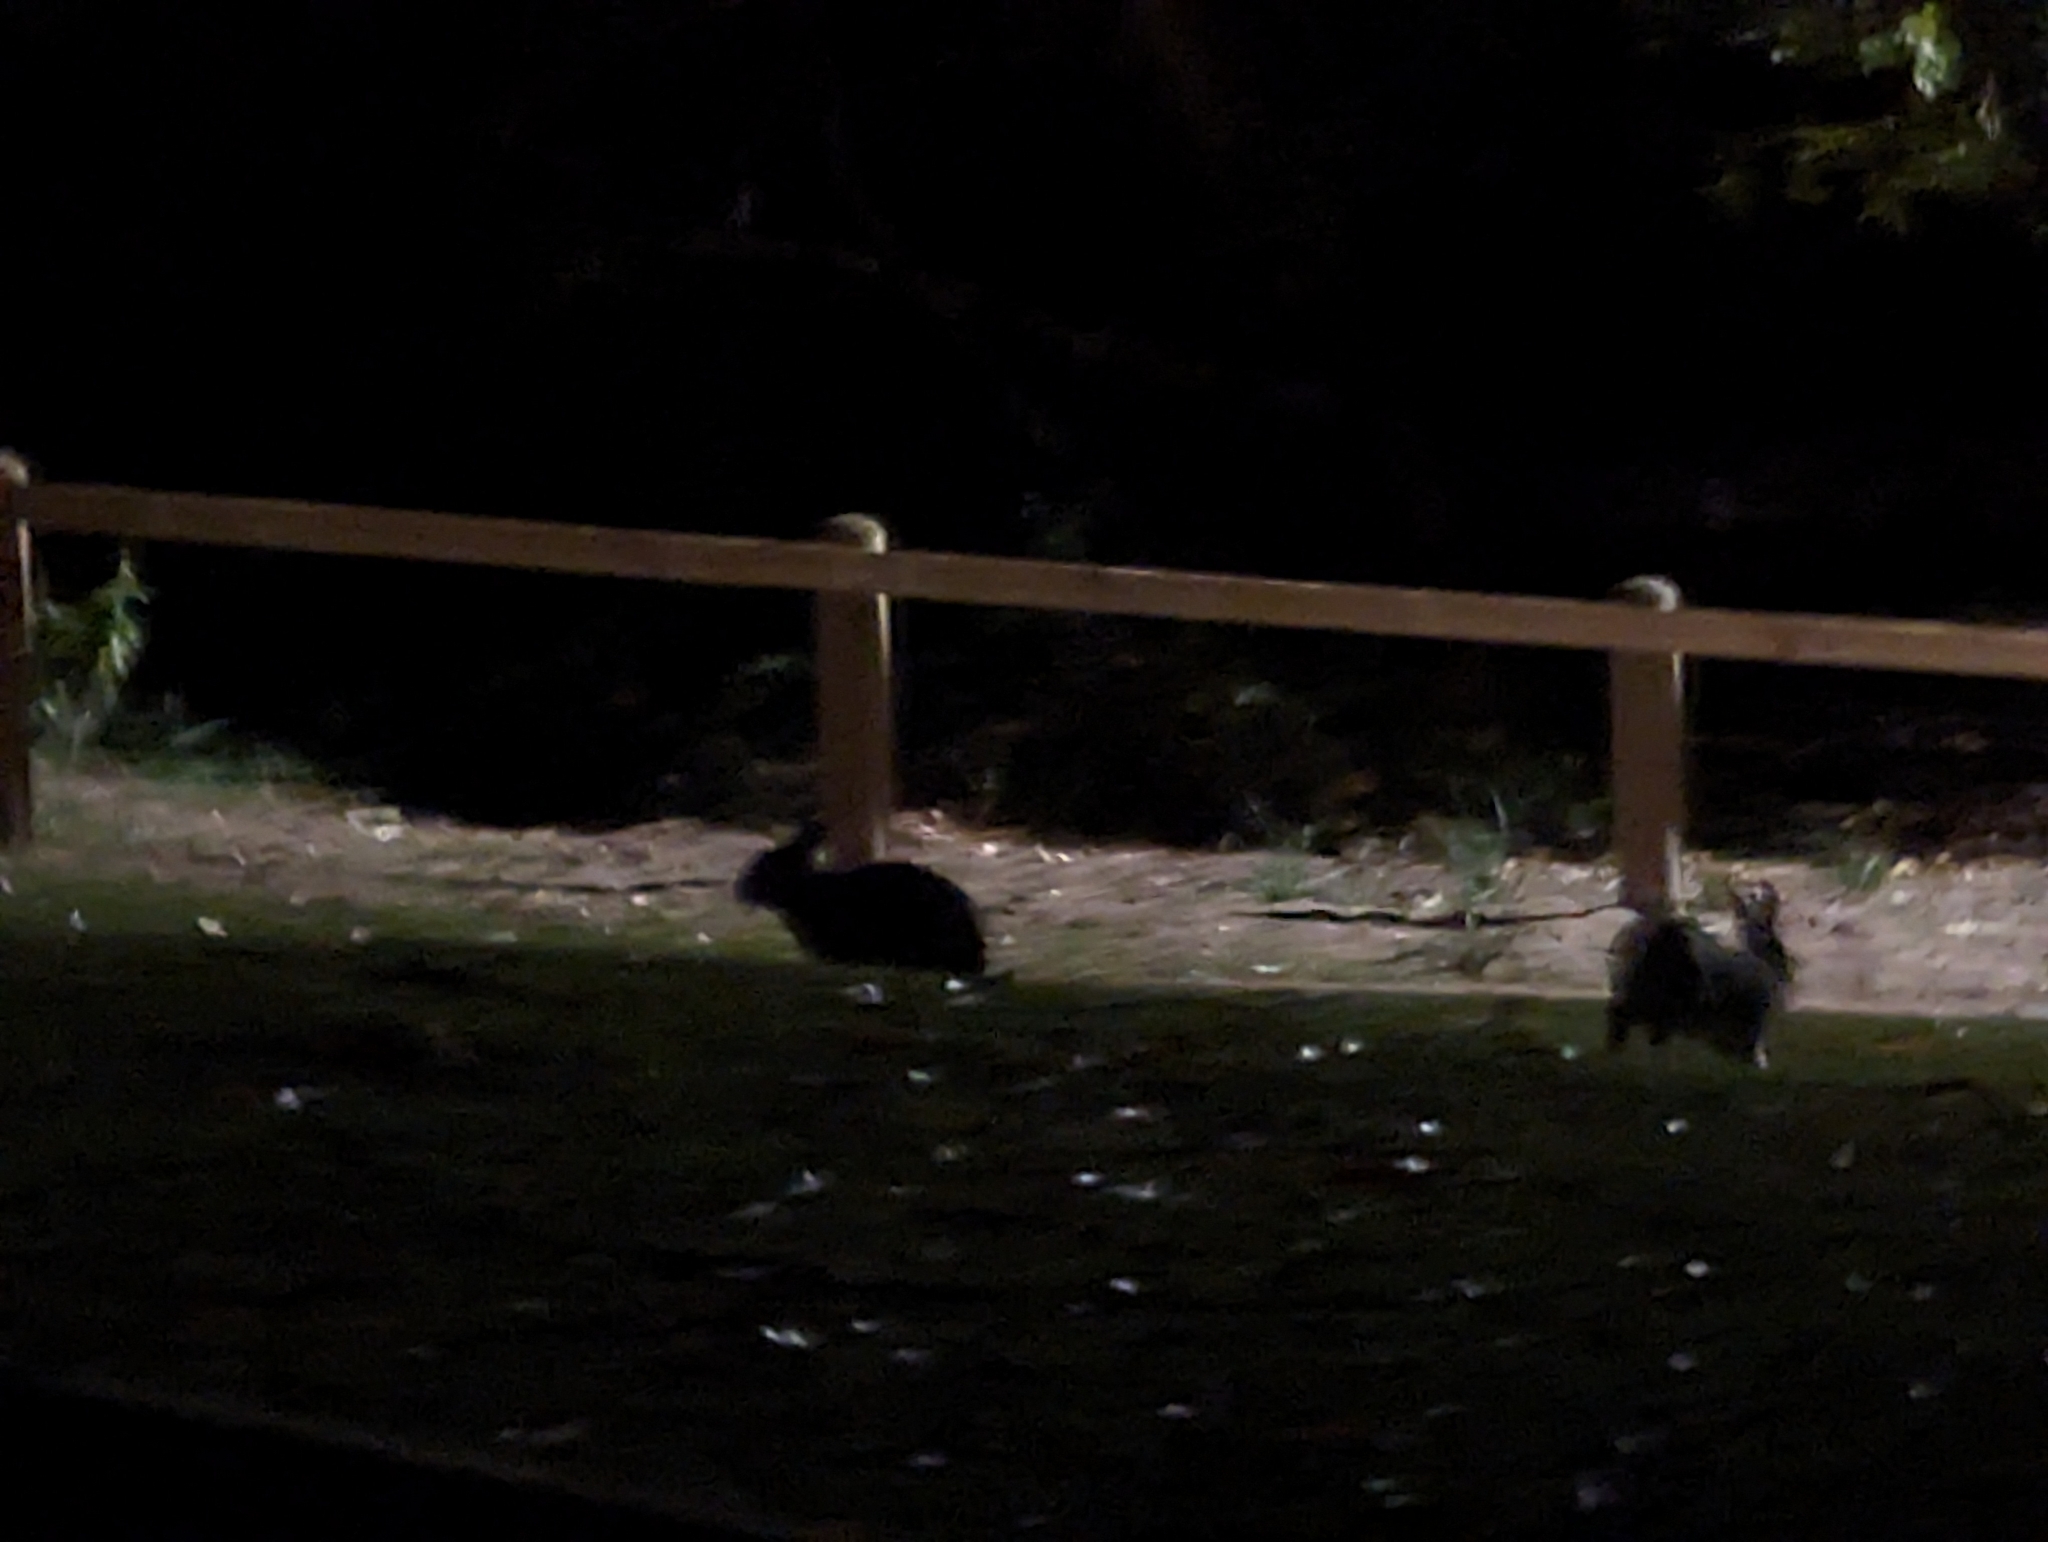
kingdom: Animalia
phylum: Chordata
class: Mammalia
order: Lagomorpha
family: Leporidae
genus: Oryctolagus
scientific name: Oryctolagus cuniculus
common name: European rabbit
